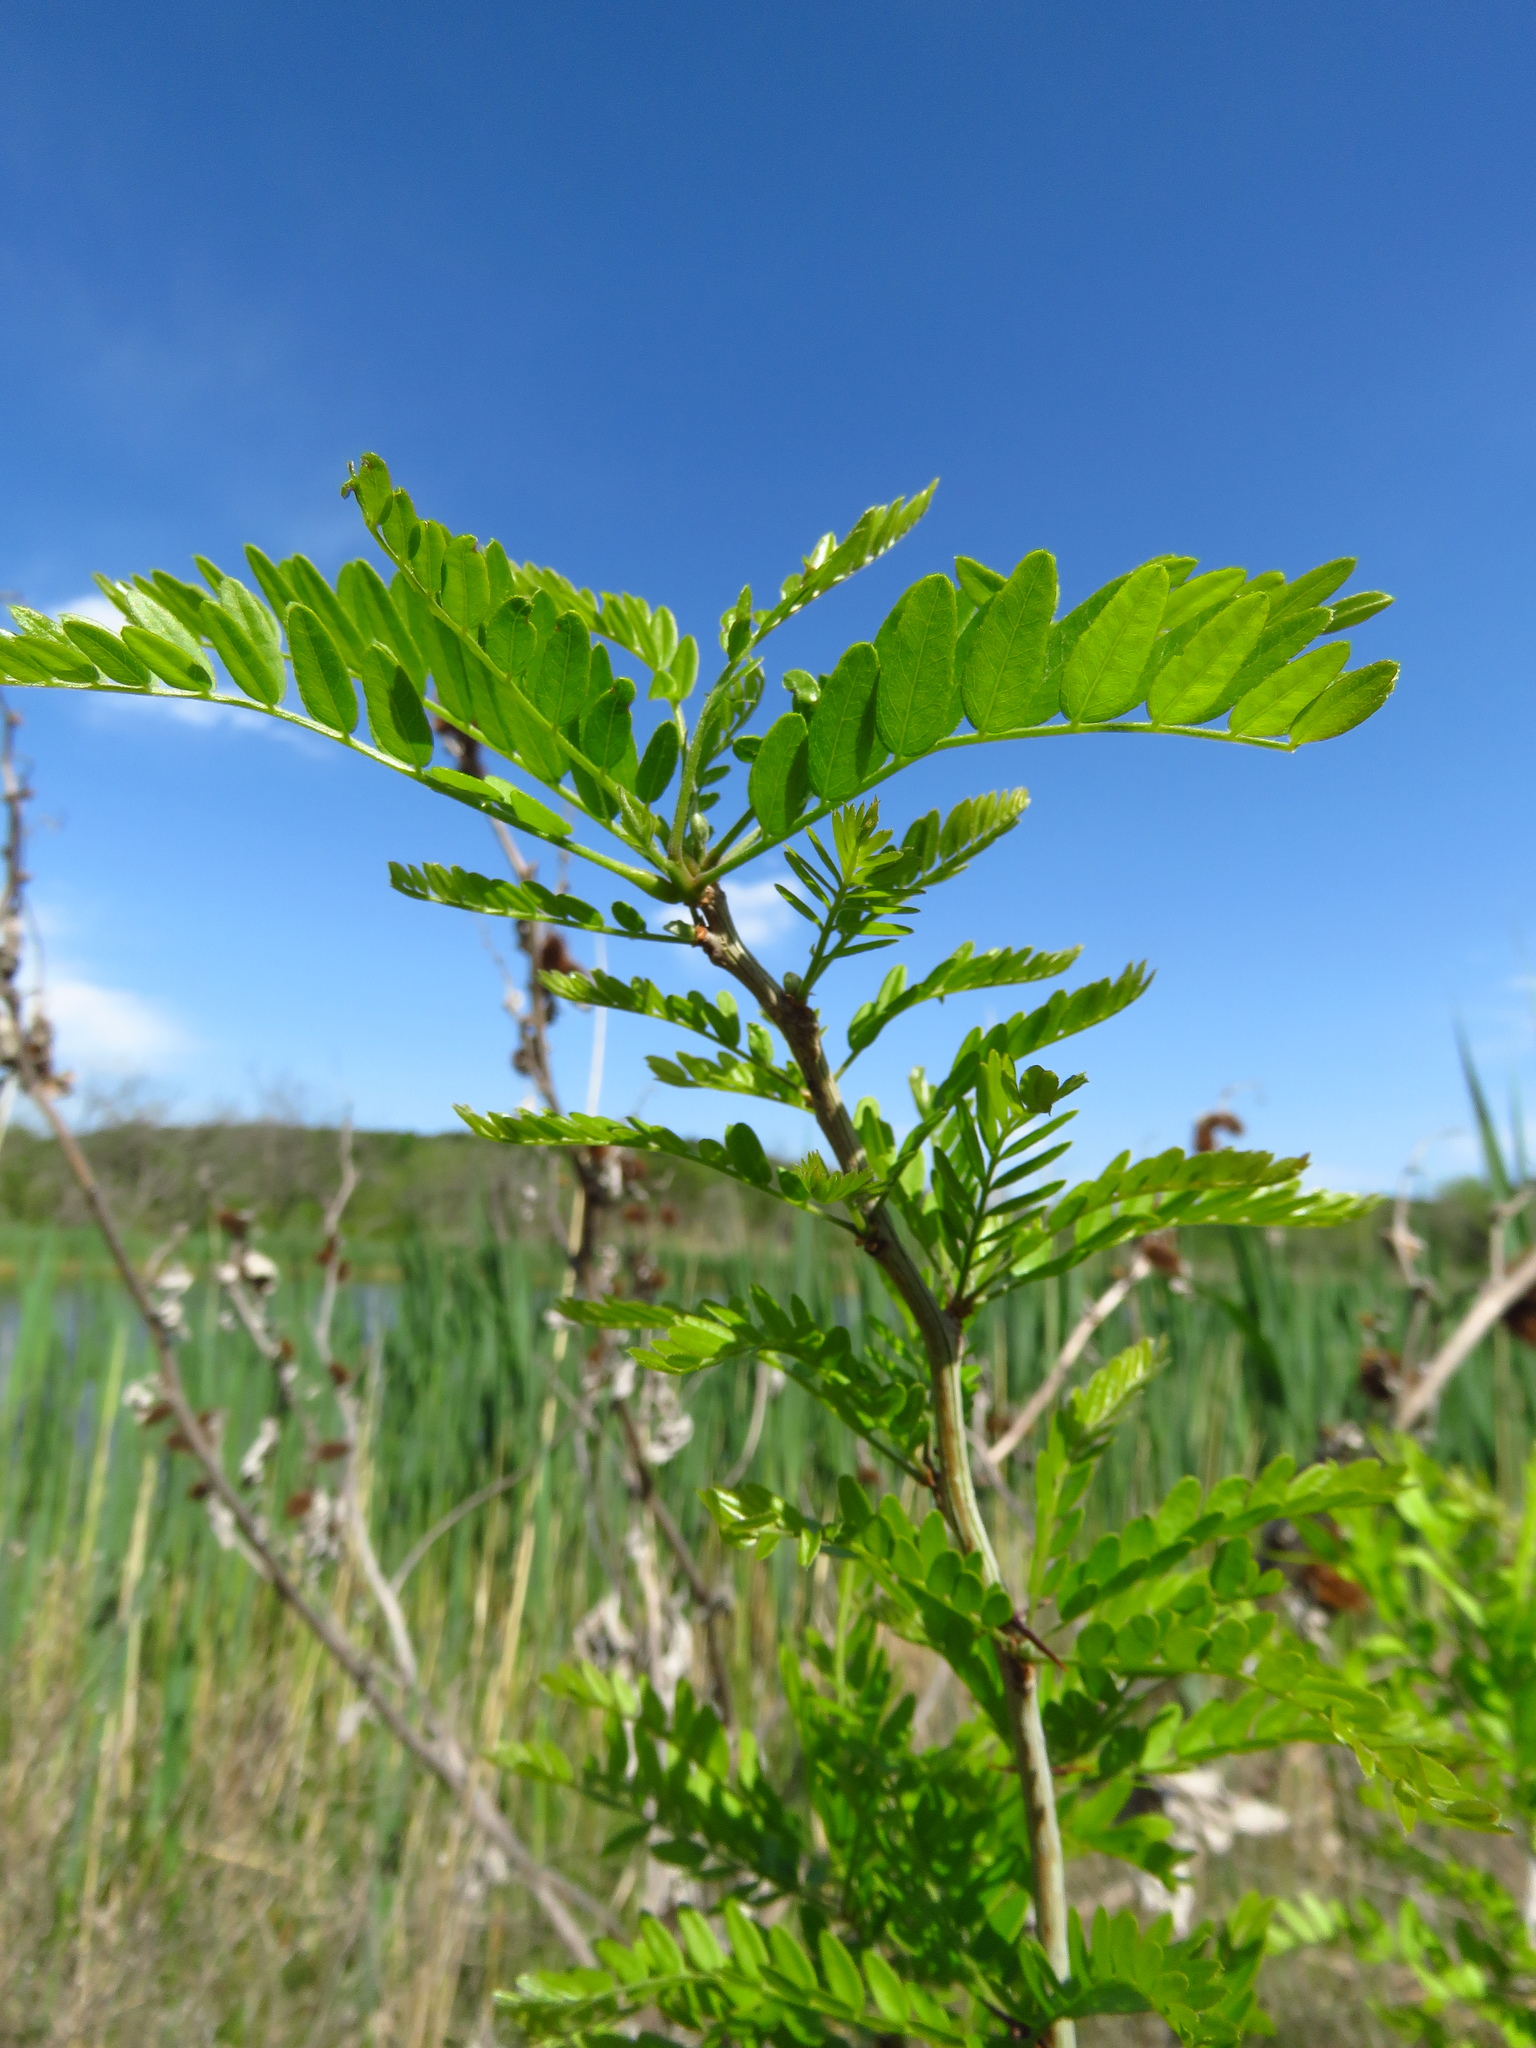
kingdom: Plantae
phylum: Tracheophyta
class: Magnoliopsida
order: Fabales
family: Fabaceae
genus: Gleditsia
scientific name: Gleditsia triacanthos
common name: Common honeylocust
